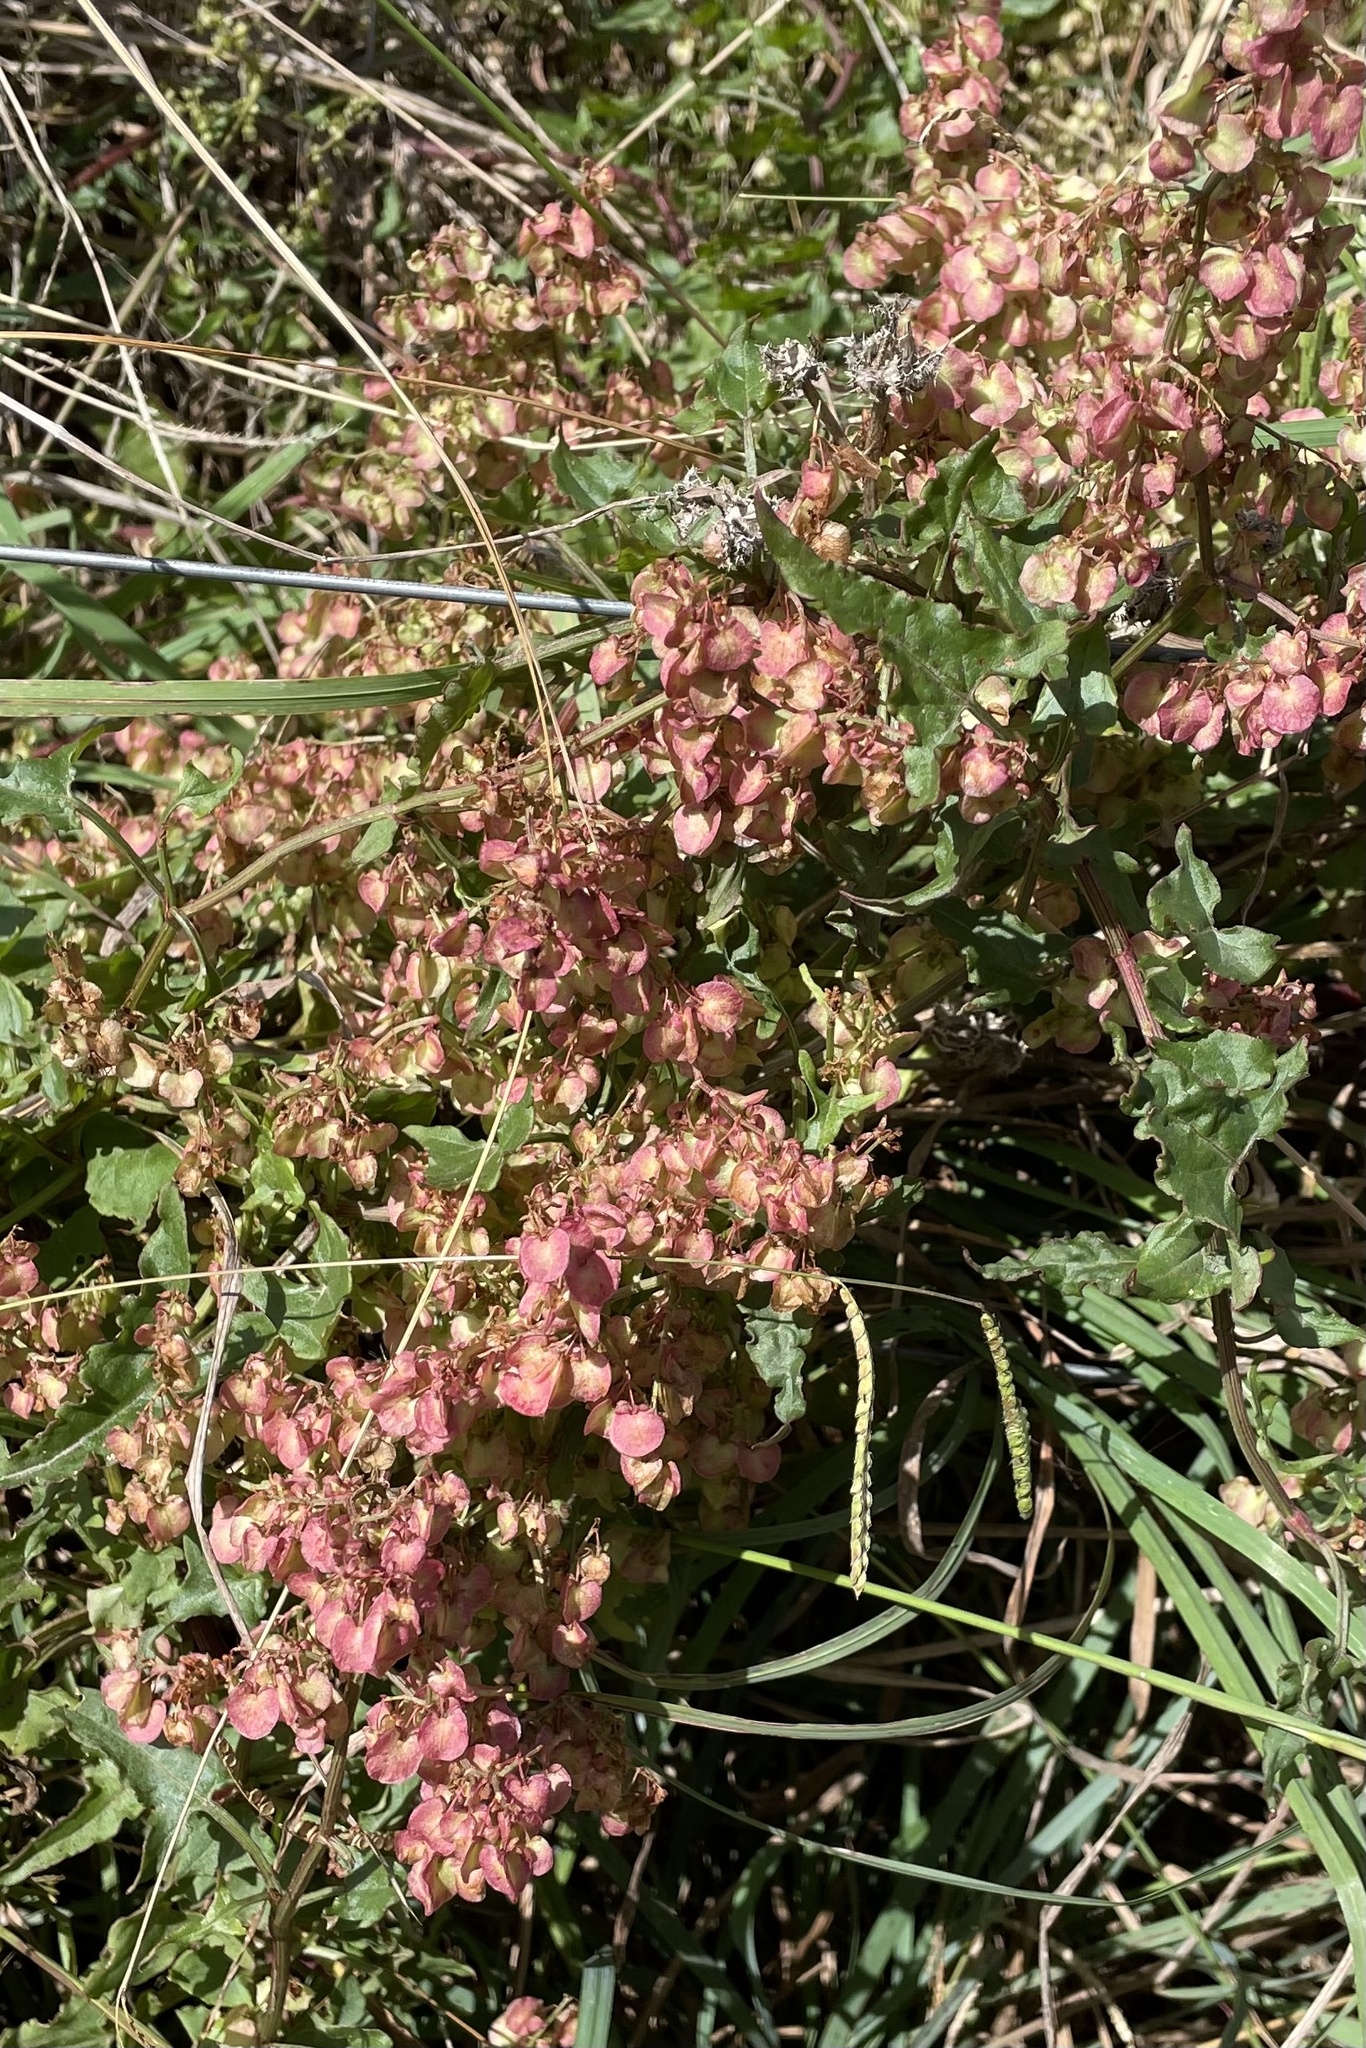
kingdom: Plantae
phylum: Tracheophyta
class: Magnoliopsida
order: Caryophyllales
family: Polygonaceae
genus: Rumex
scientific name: Rumex sagittatus
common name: Climbing dock
